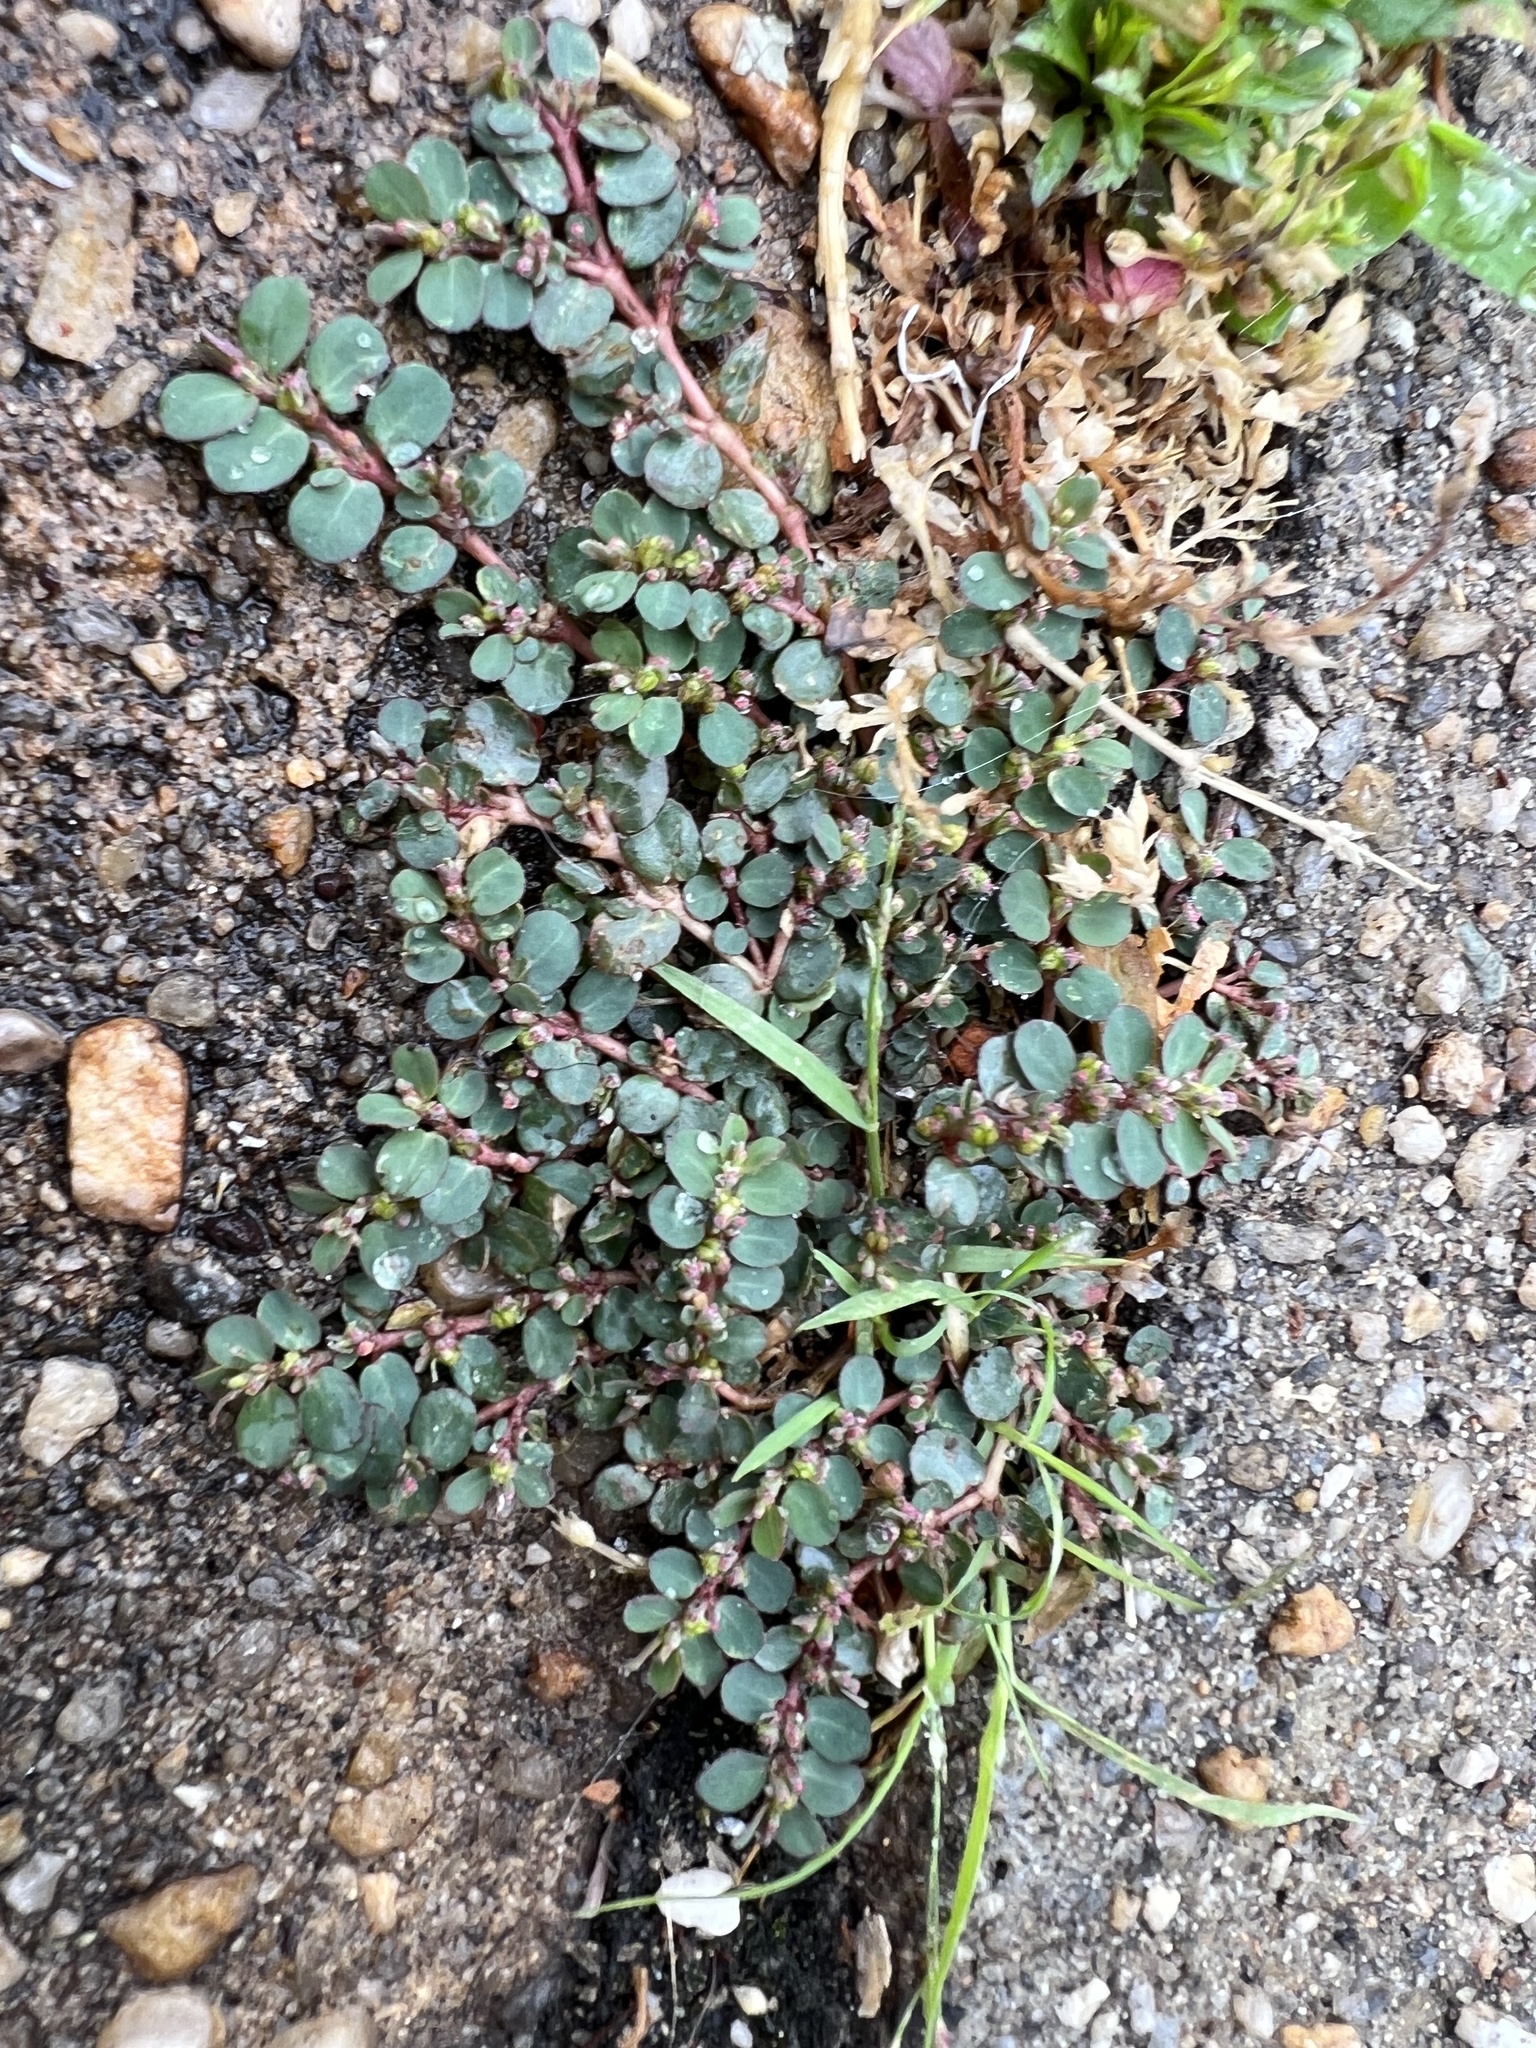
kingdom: Plantae
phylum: Tracheophyta
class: Magnoliopsida
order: Malpighiales
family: Euphorbiaceae
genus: Euphorbia
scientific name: Euphorbia prostrata
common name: Prostrate sandmat
